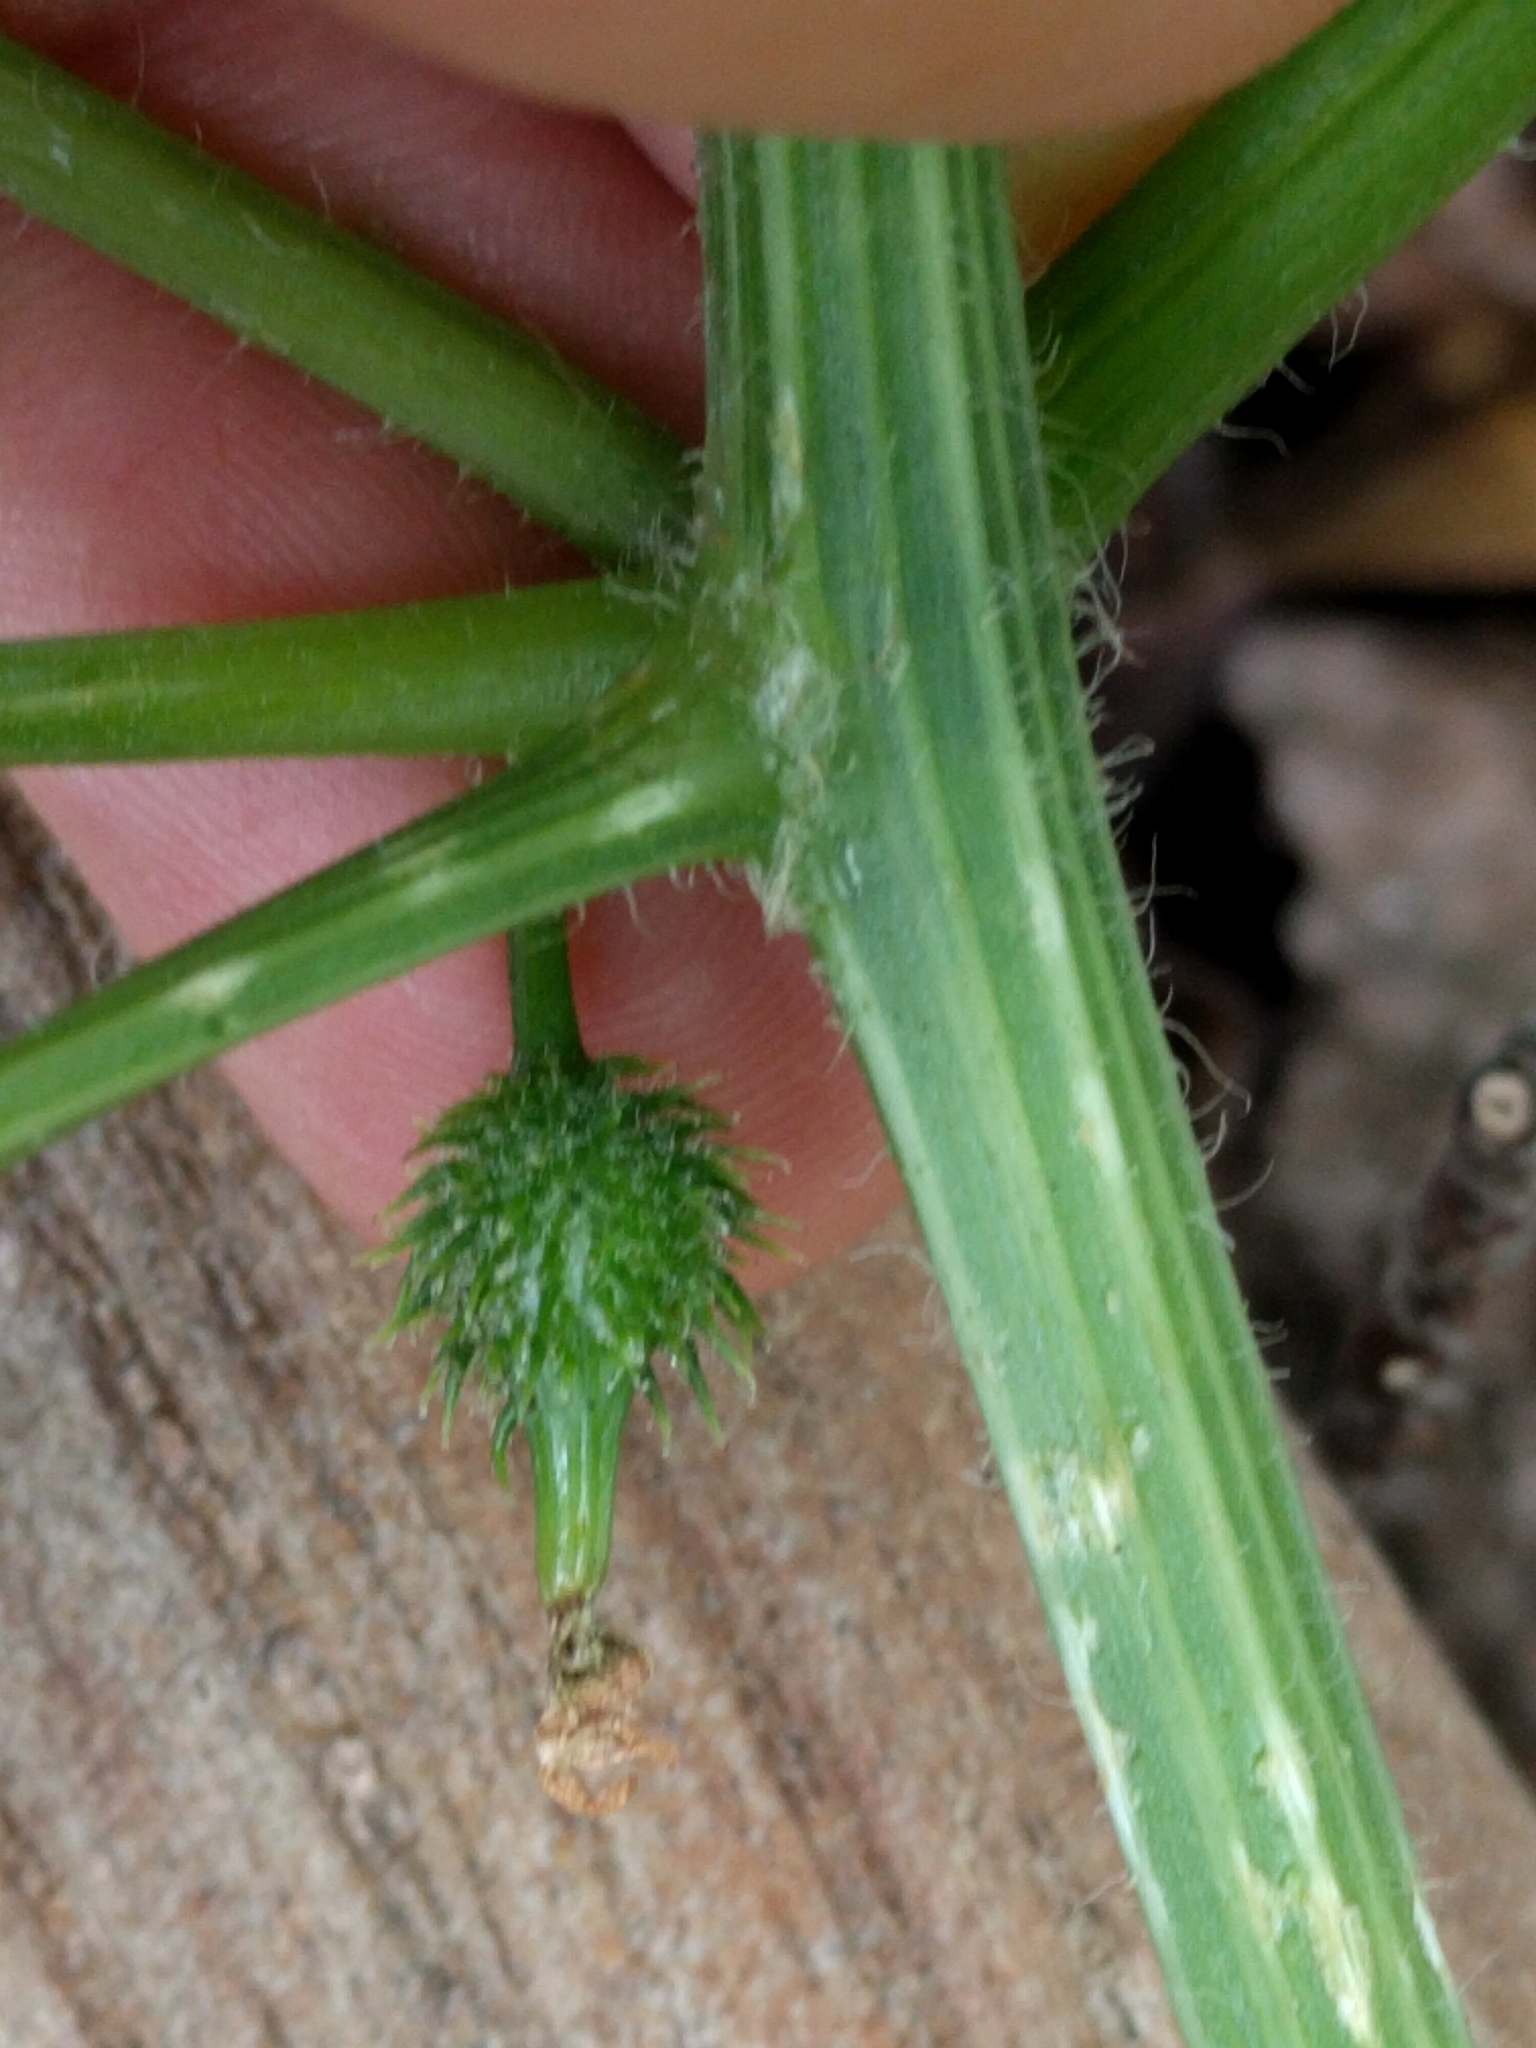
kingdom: Plantae
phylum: Tracheophyta
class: Magnoliopsida
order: Cucurbitales
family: Cucurbitaceae
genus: Marah
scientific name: Marah oregana
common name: Coastal manroot
